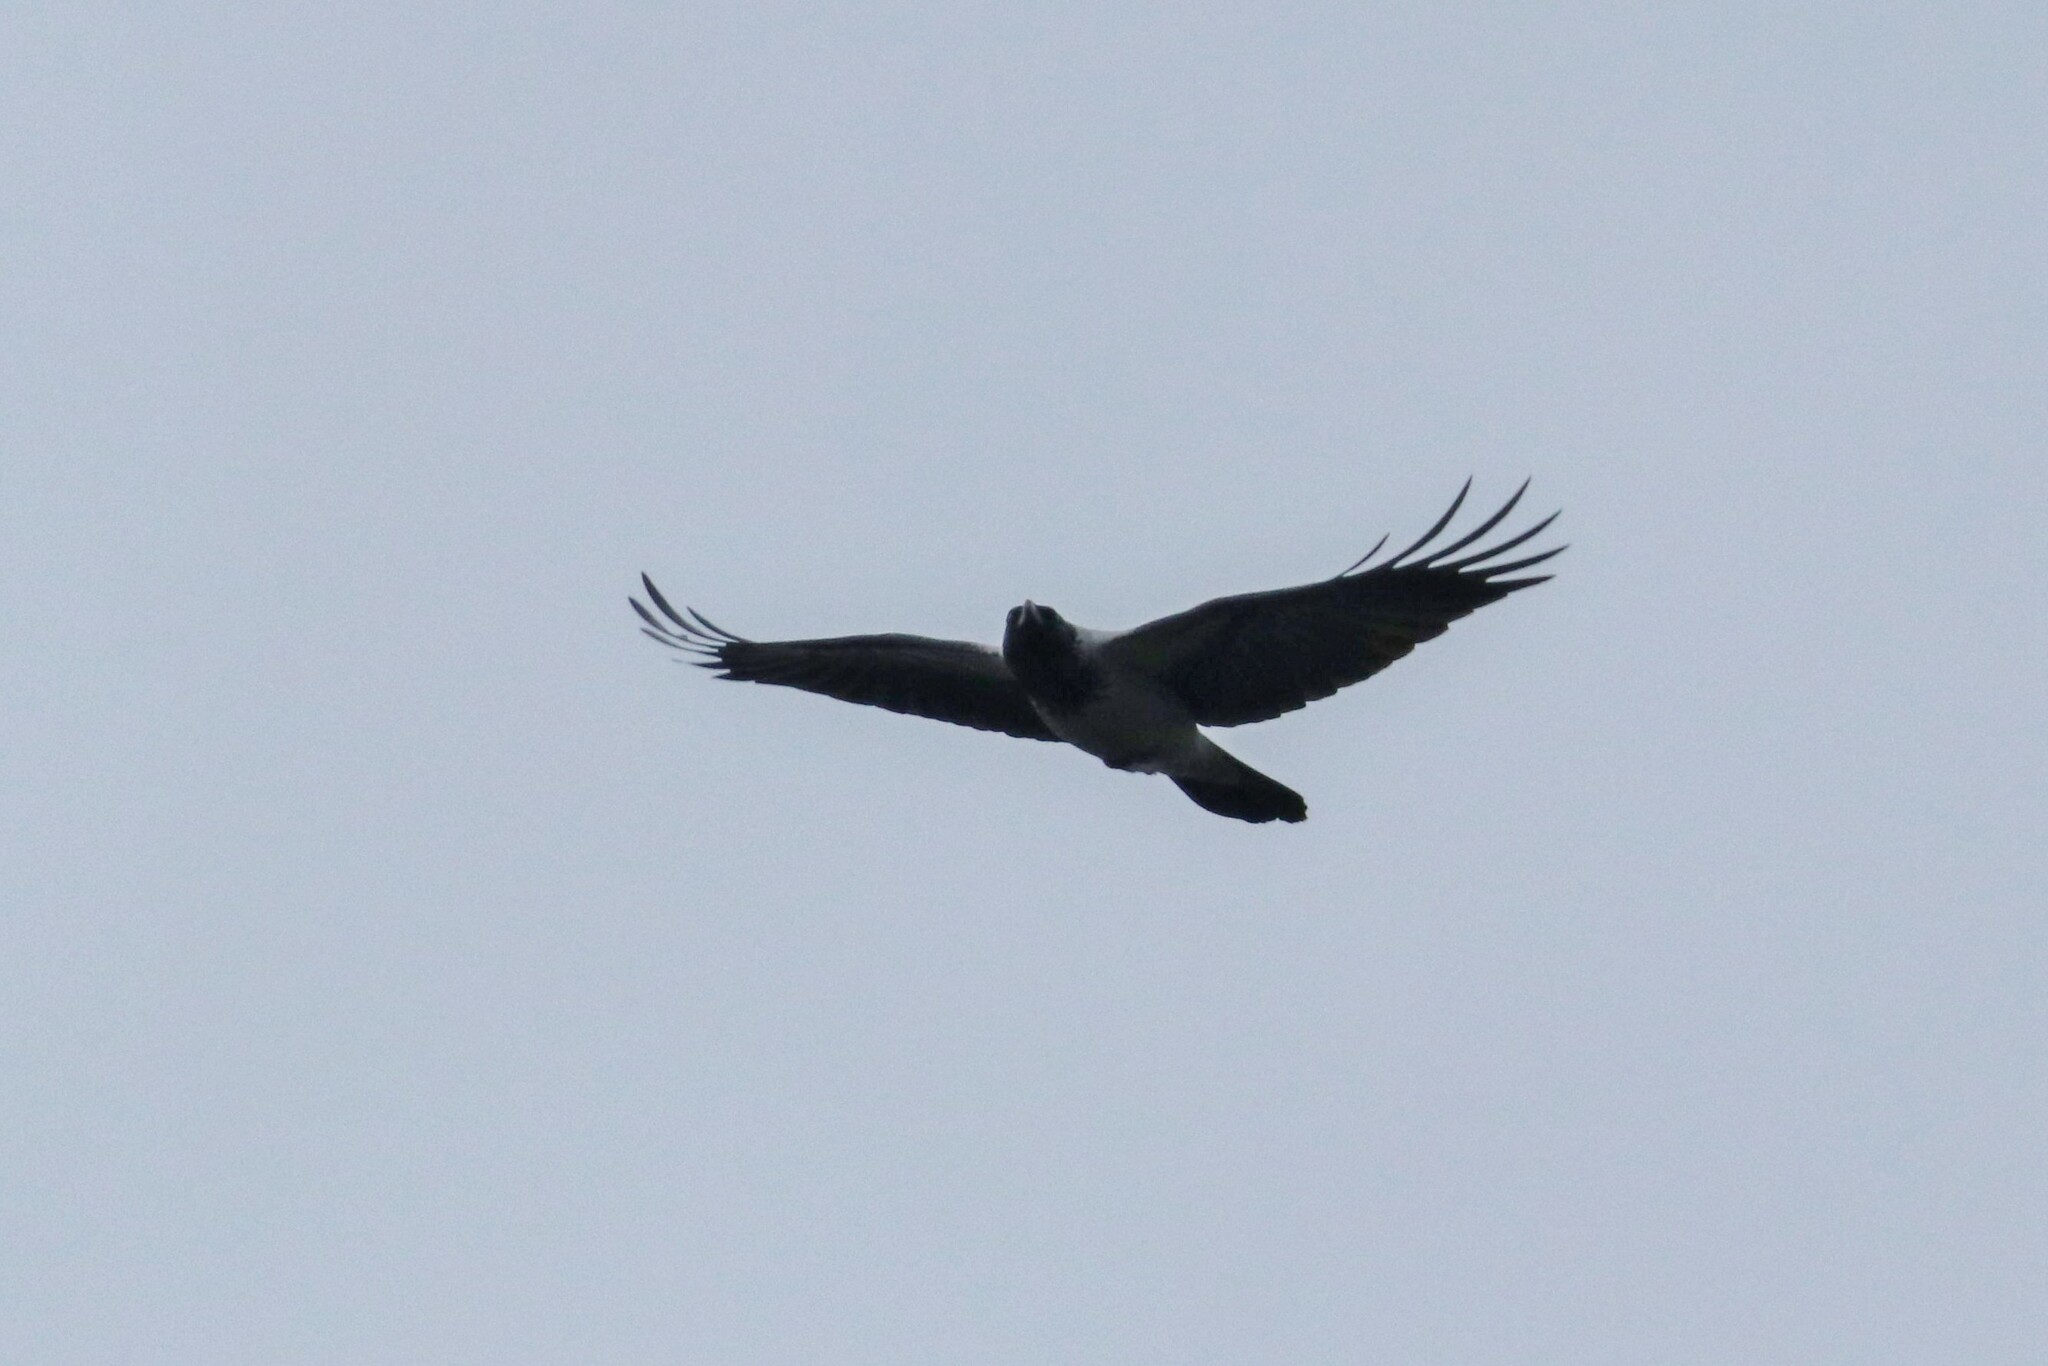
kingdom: Animalia
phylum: Chordata
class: Aves
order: Passeriformes
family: Corvidae
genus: Corvus
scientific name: Corvus cornix
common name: Hooded crow
